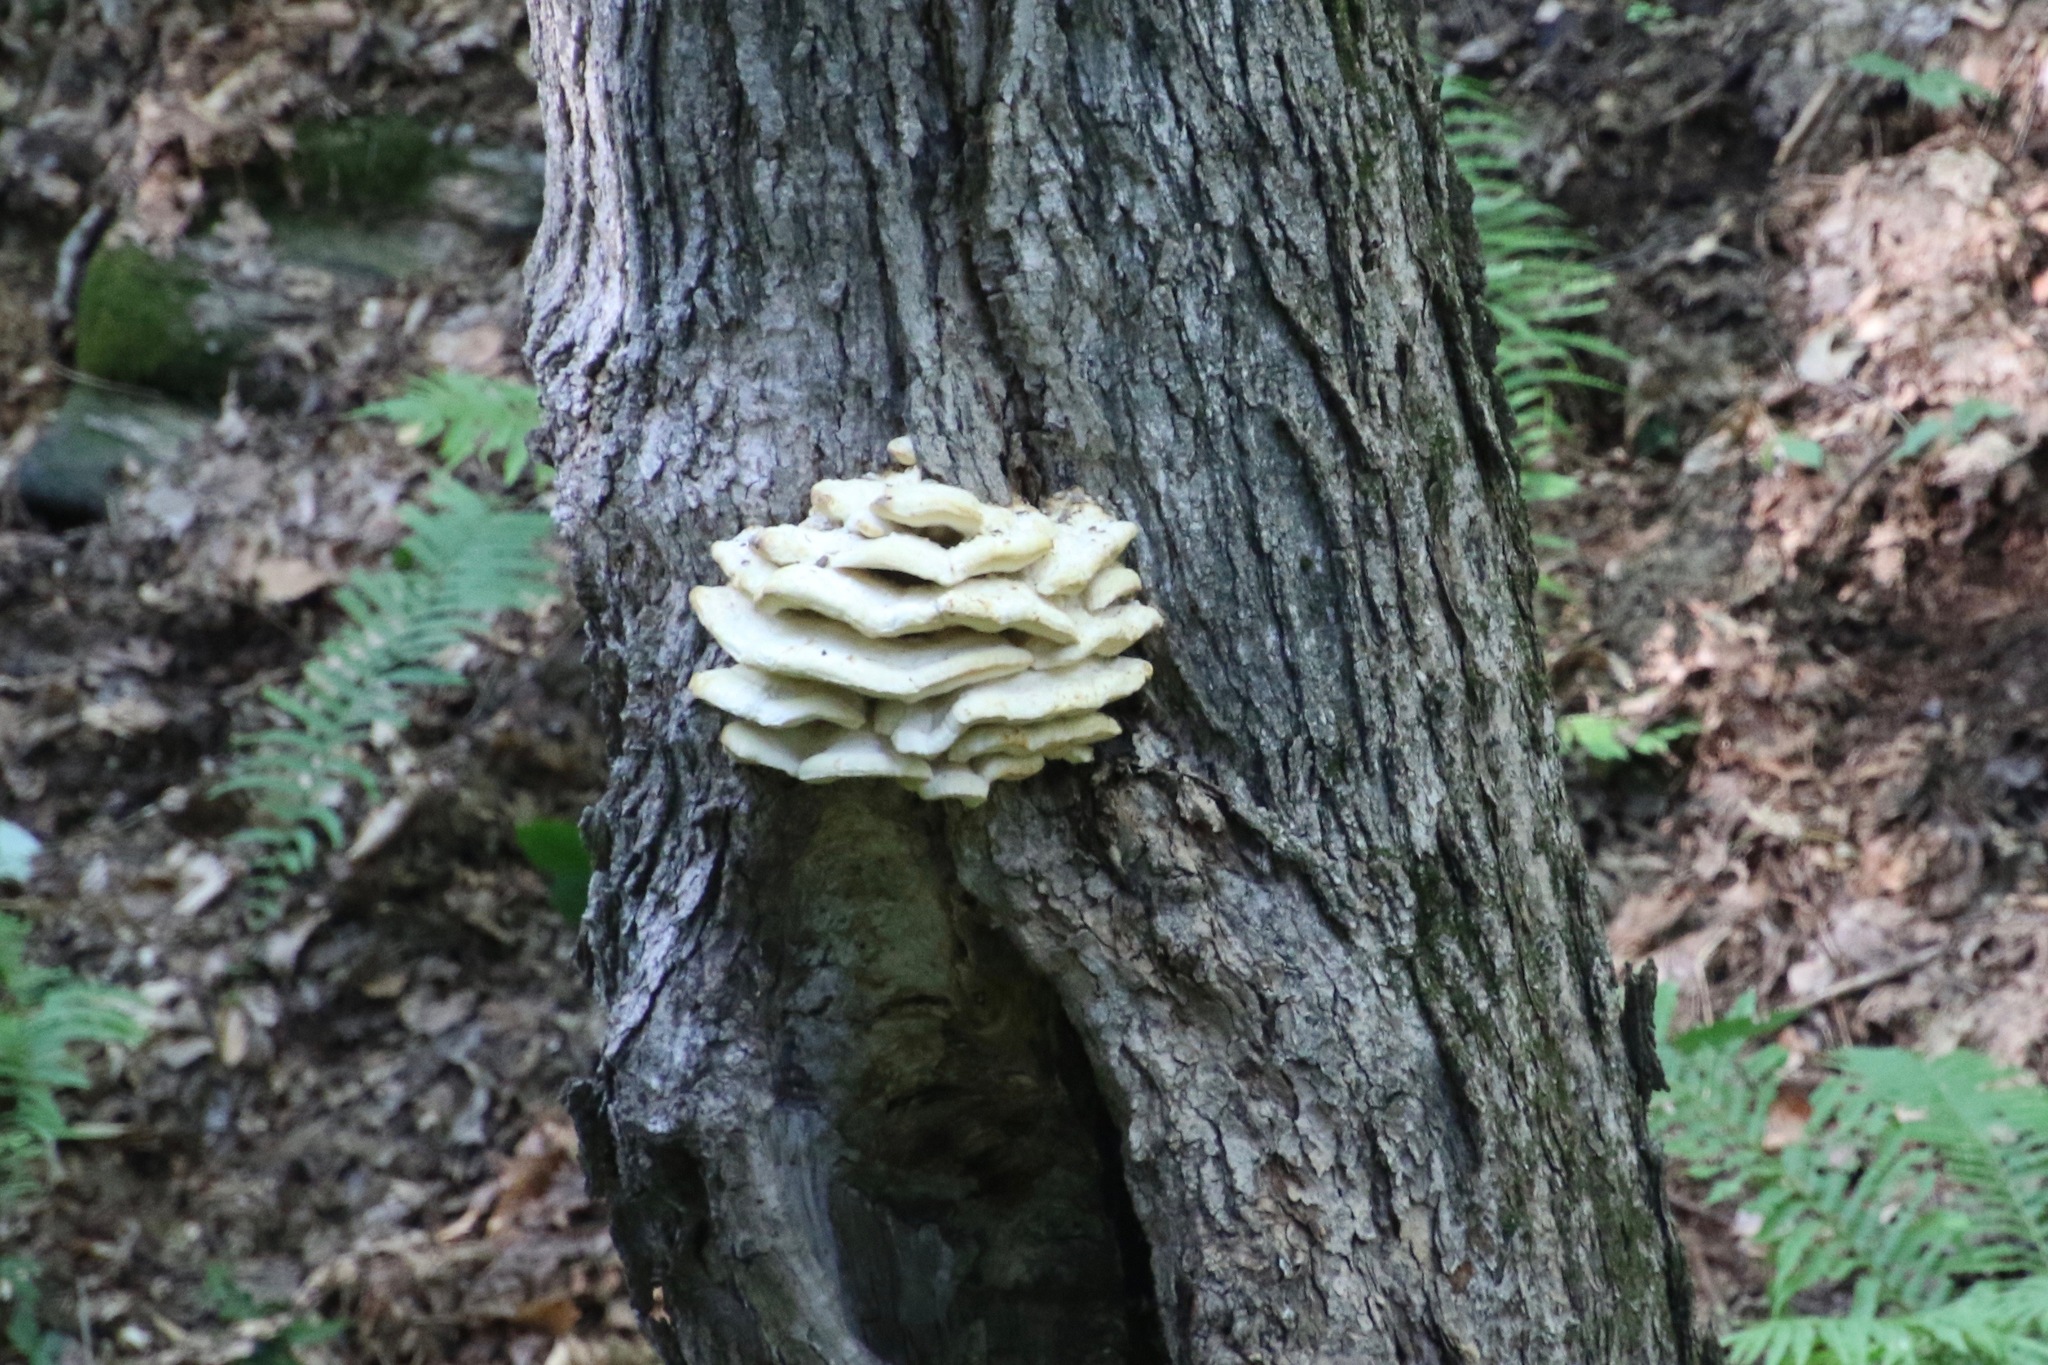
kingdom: Fungi
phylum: Basidiomycota
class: Agaricomycetes
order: Polyporales
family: Meruliaceae
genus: Climacodon
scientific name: Climacodon septentrionalis
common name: Northern tooth
